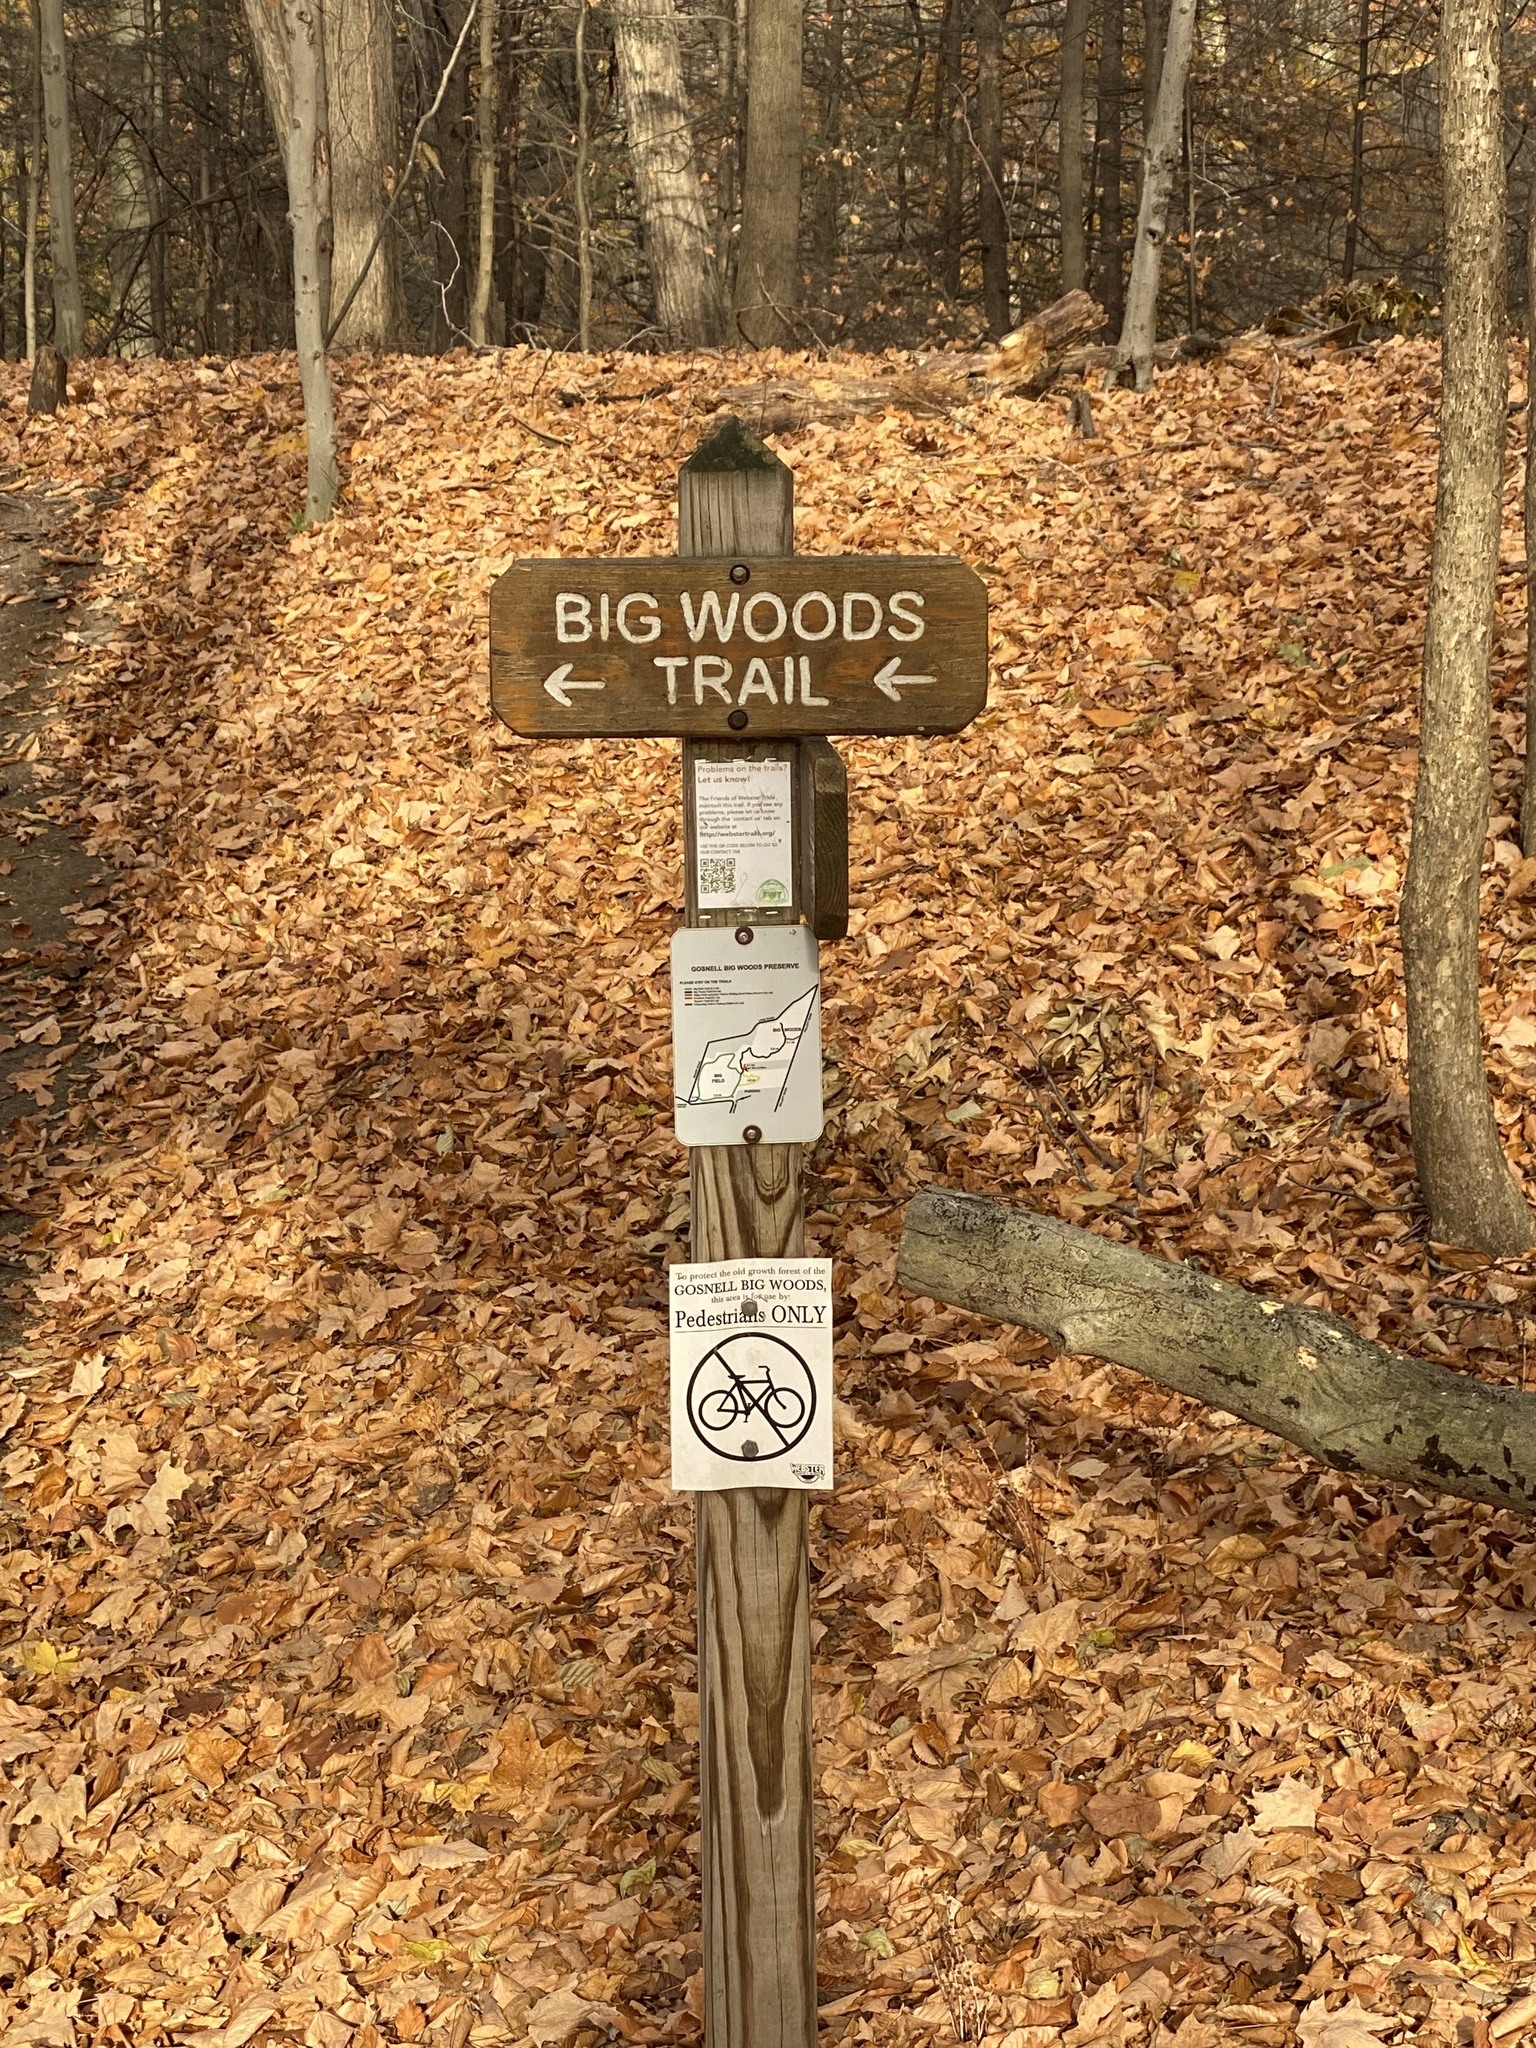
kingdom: Plantae
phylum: Tracheophyta
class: Magnoliopsida
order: Fagales
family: Betulaceae
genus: Betula
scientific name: Betula lenta
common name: Black birch
